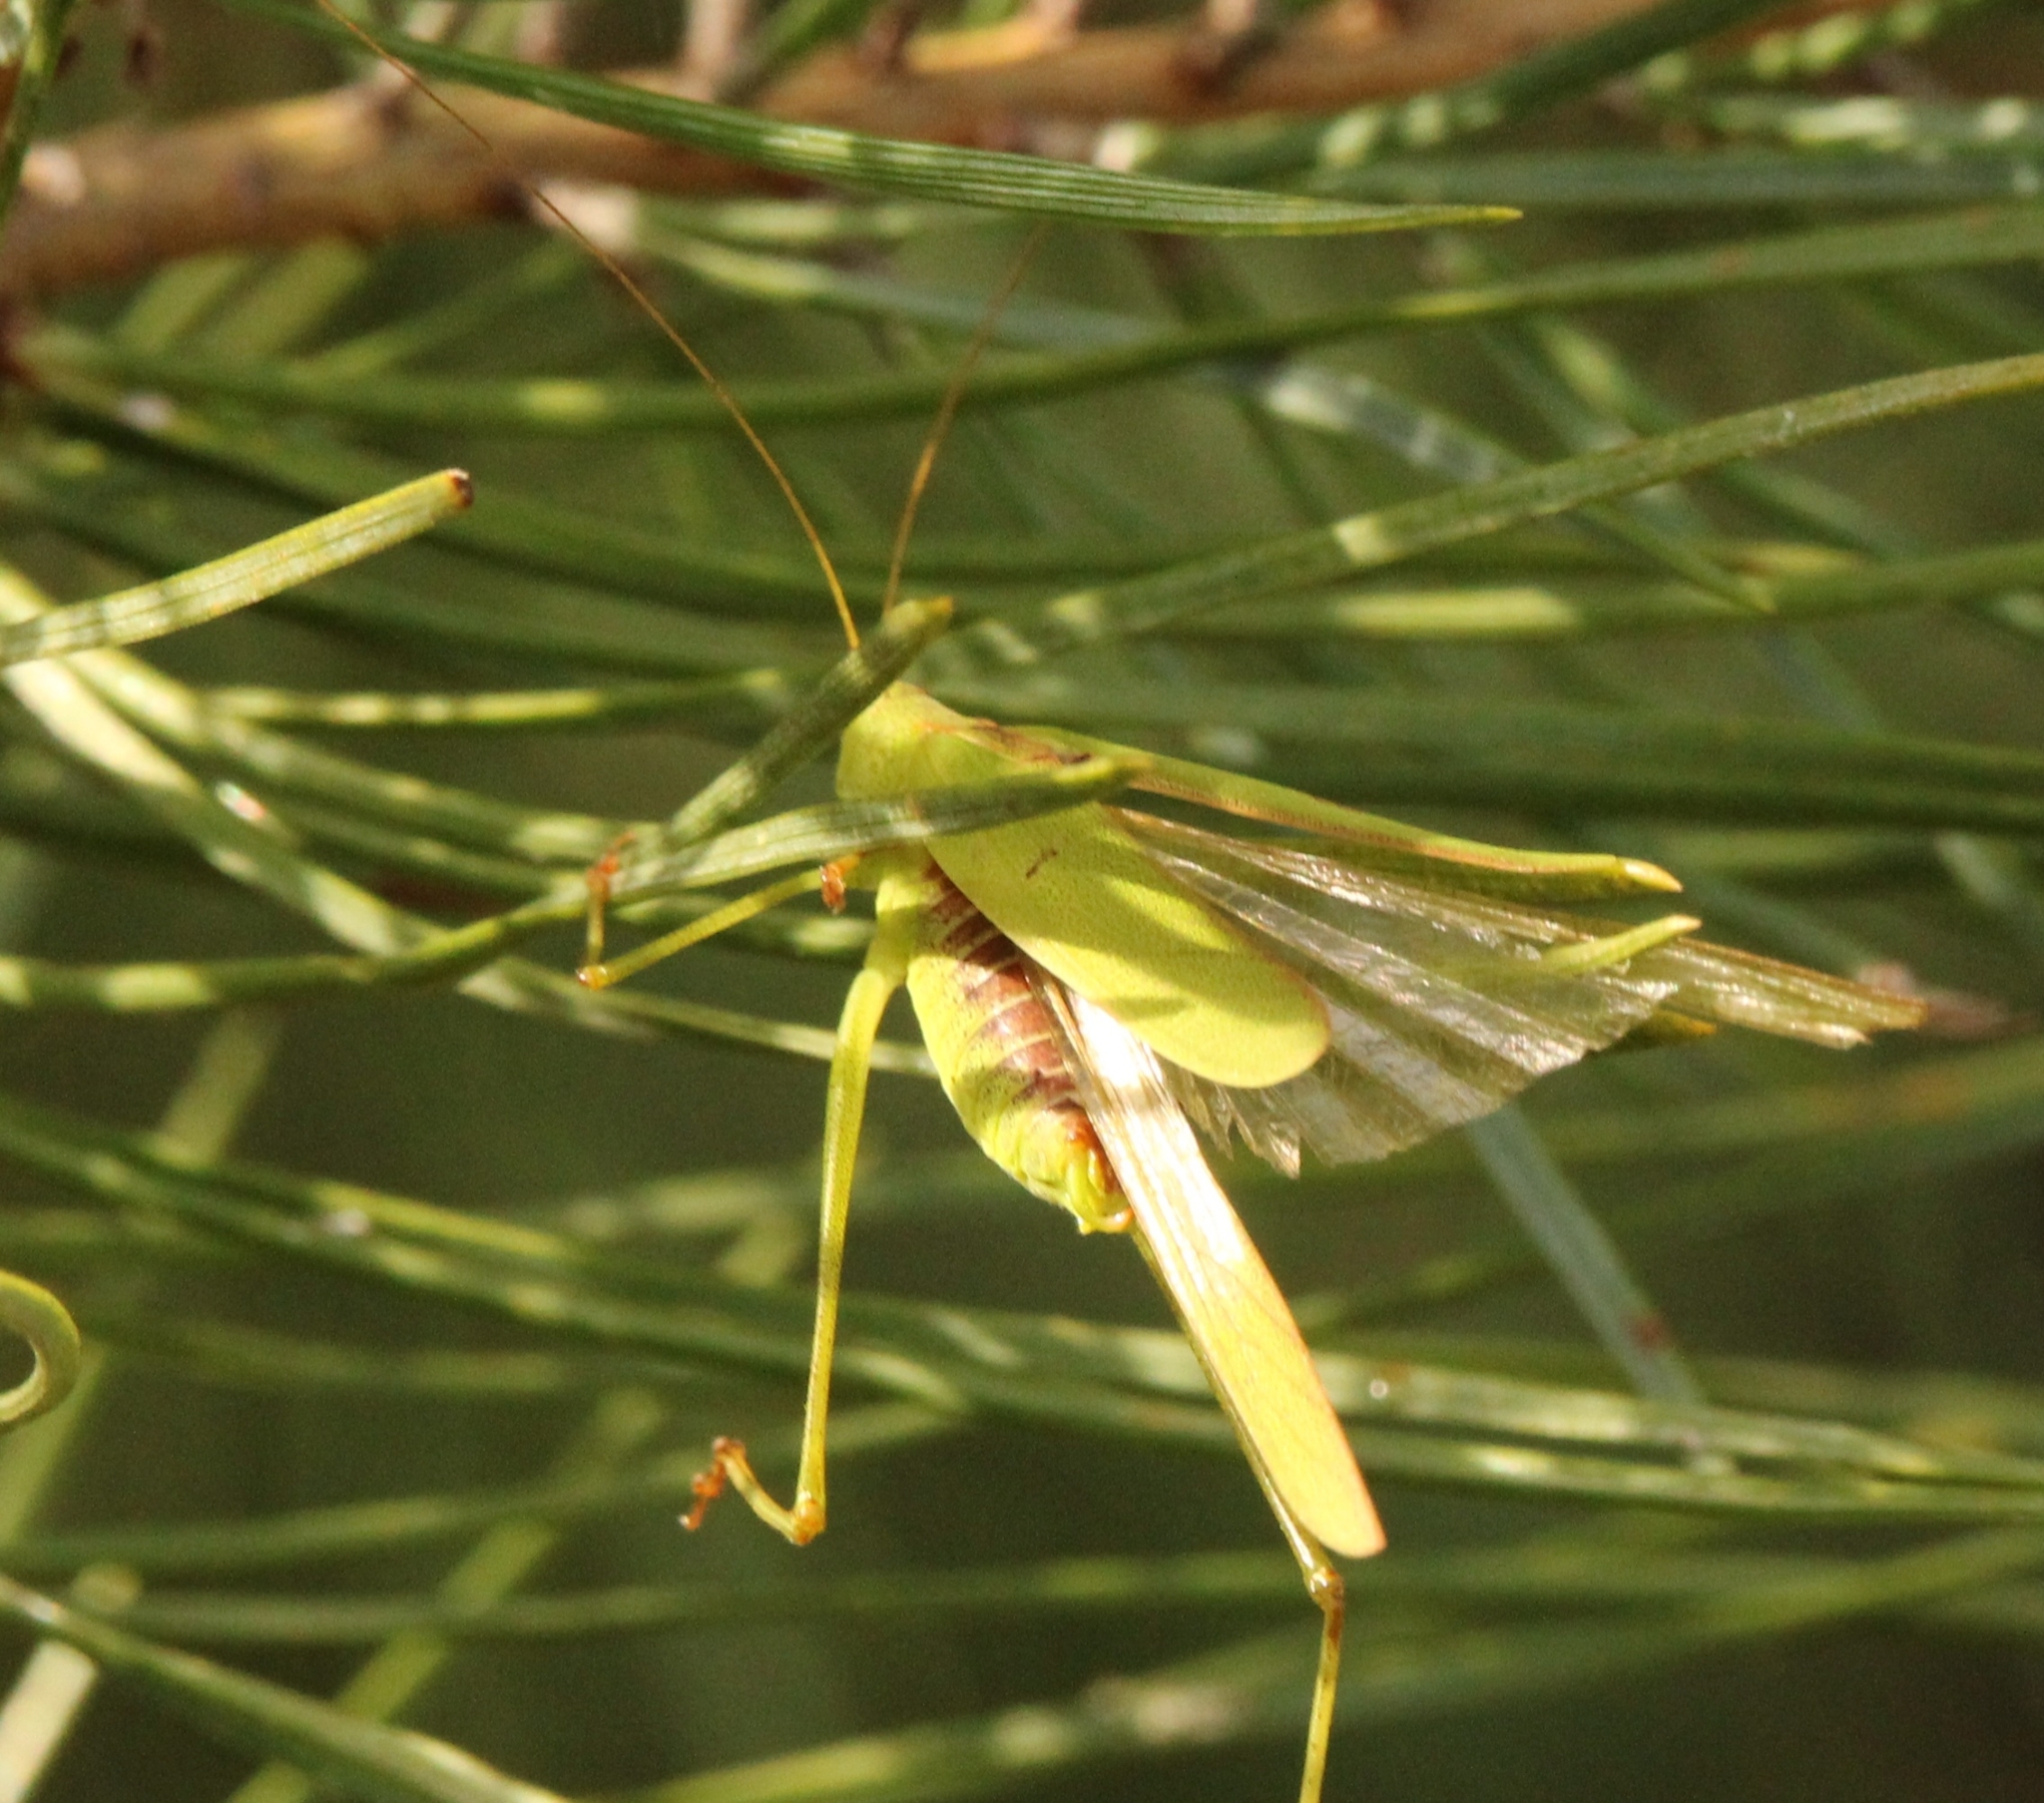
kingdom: Animalia
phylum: Arthropoda
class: Insecta
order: Orthoptera
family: Tettigoniidae
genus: Phaneroptera
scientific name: Phaneroptera falcata
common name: Sickle-bearing bush-cricket
